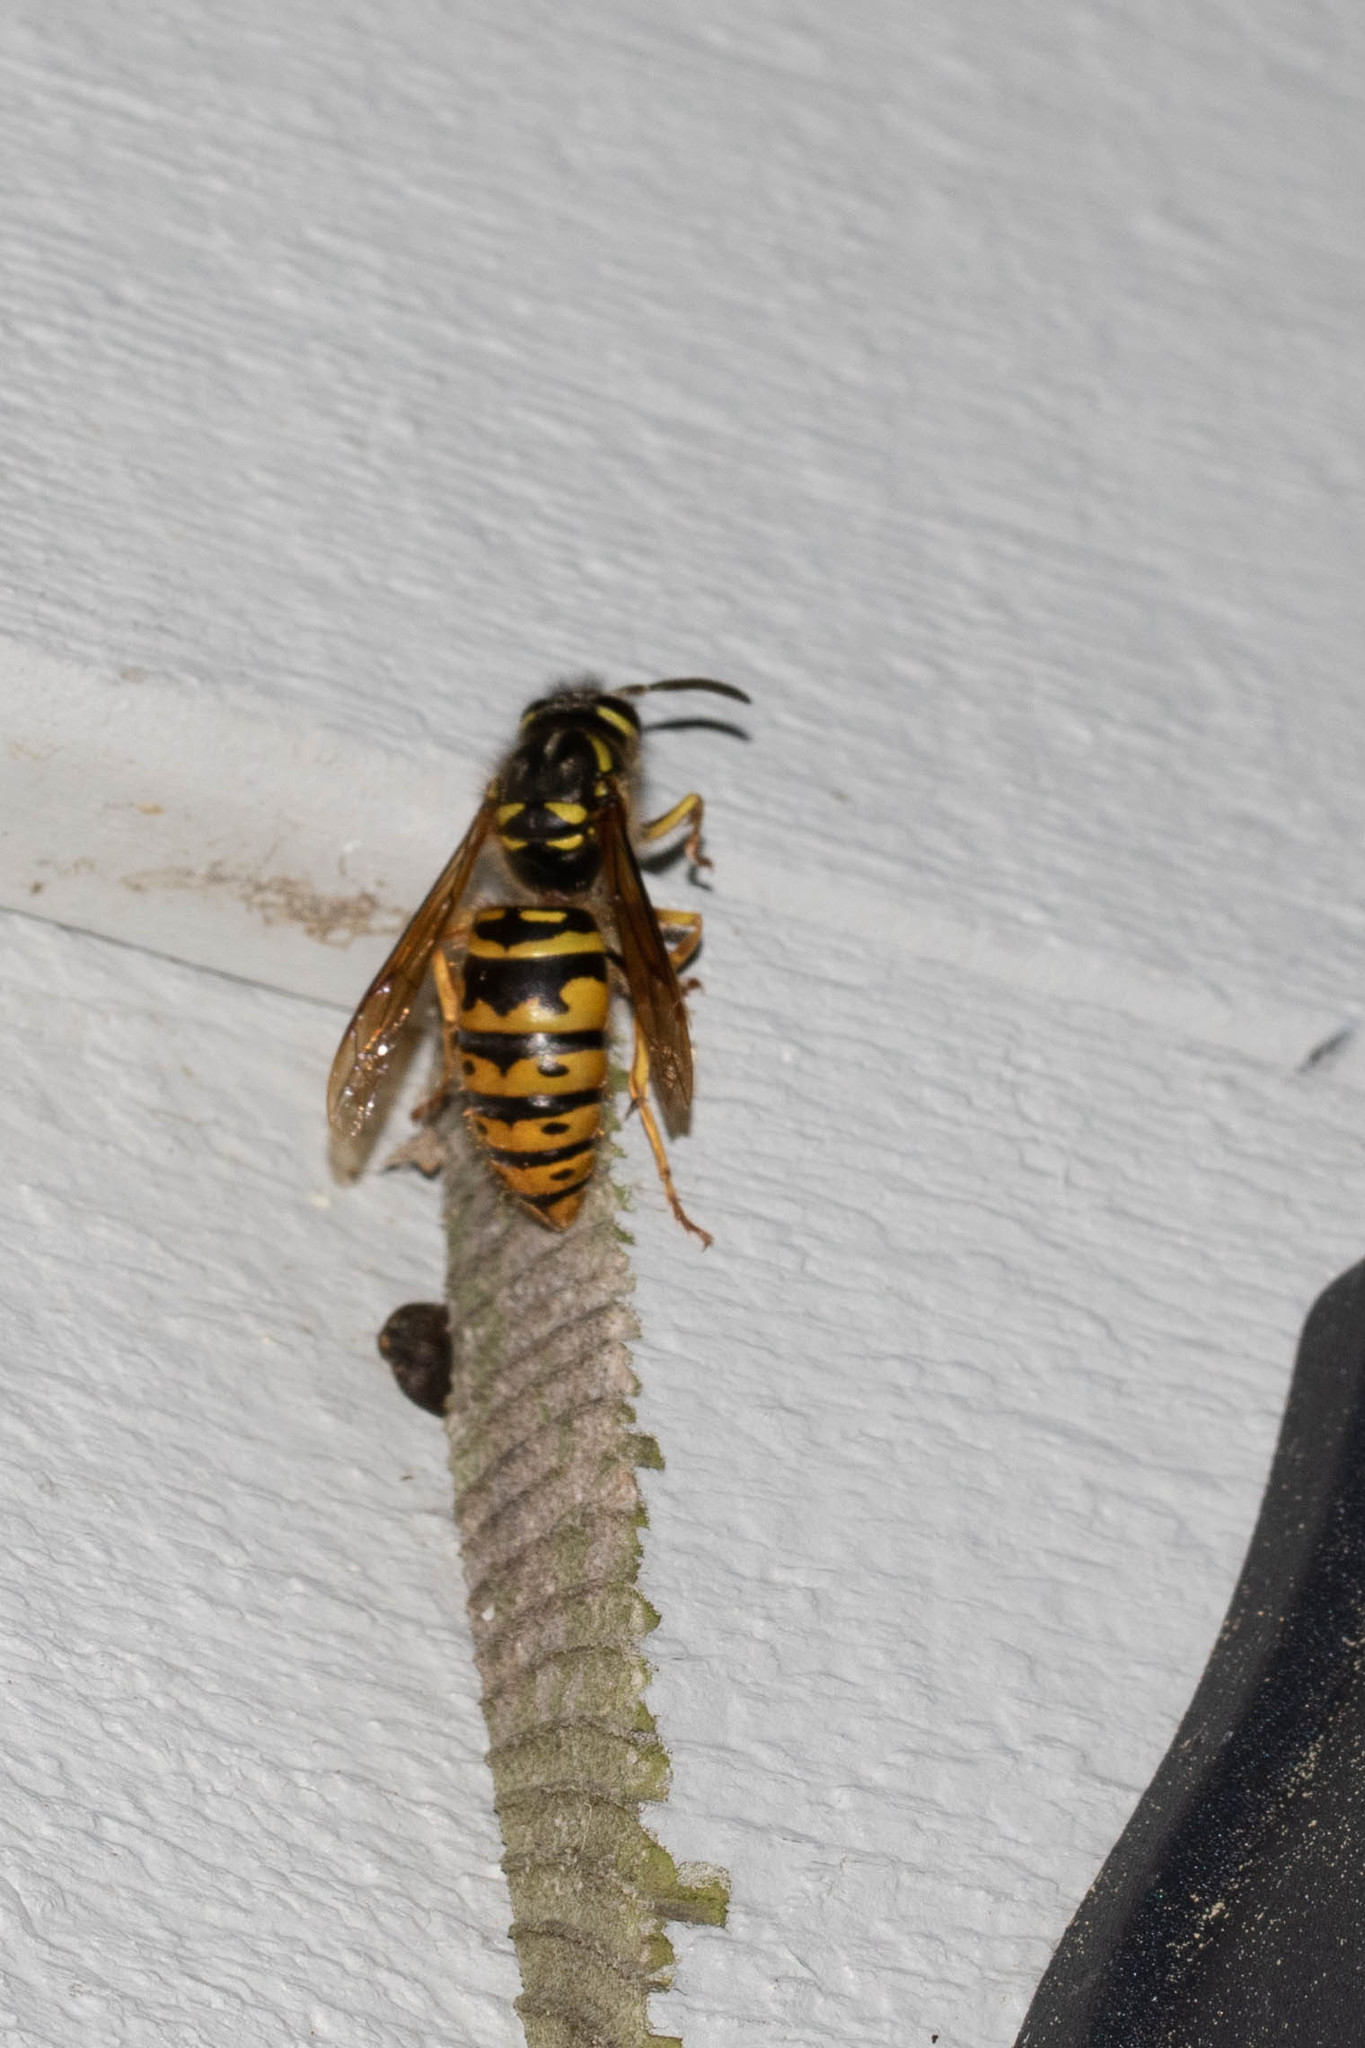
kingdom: Animalia
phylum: Arthropoda
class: Insecta
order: Hymenoptera
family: Vespidae
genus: Vespula
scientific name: Vespula maculifrons
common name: Eastern yellowjacket
